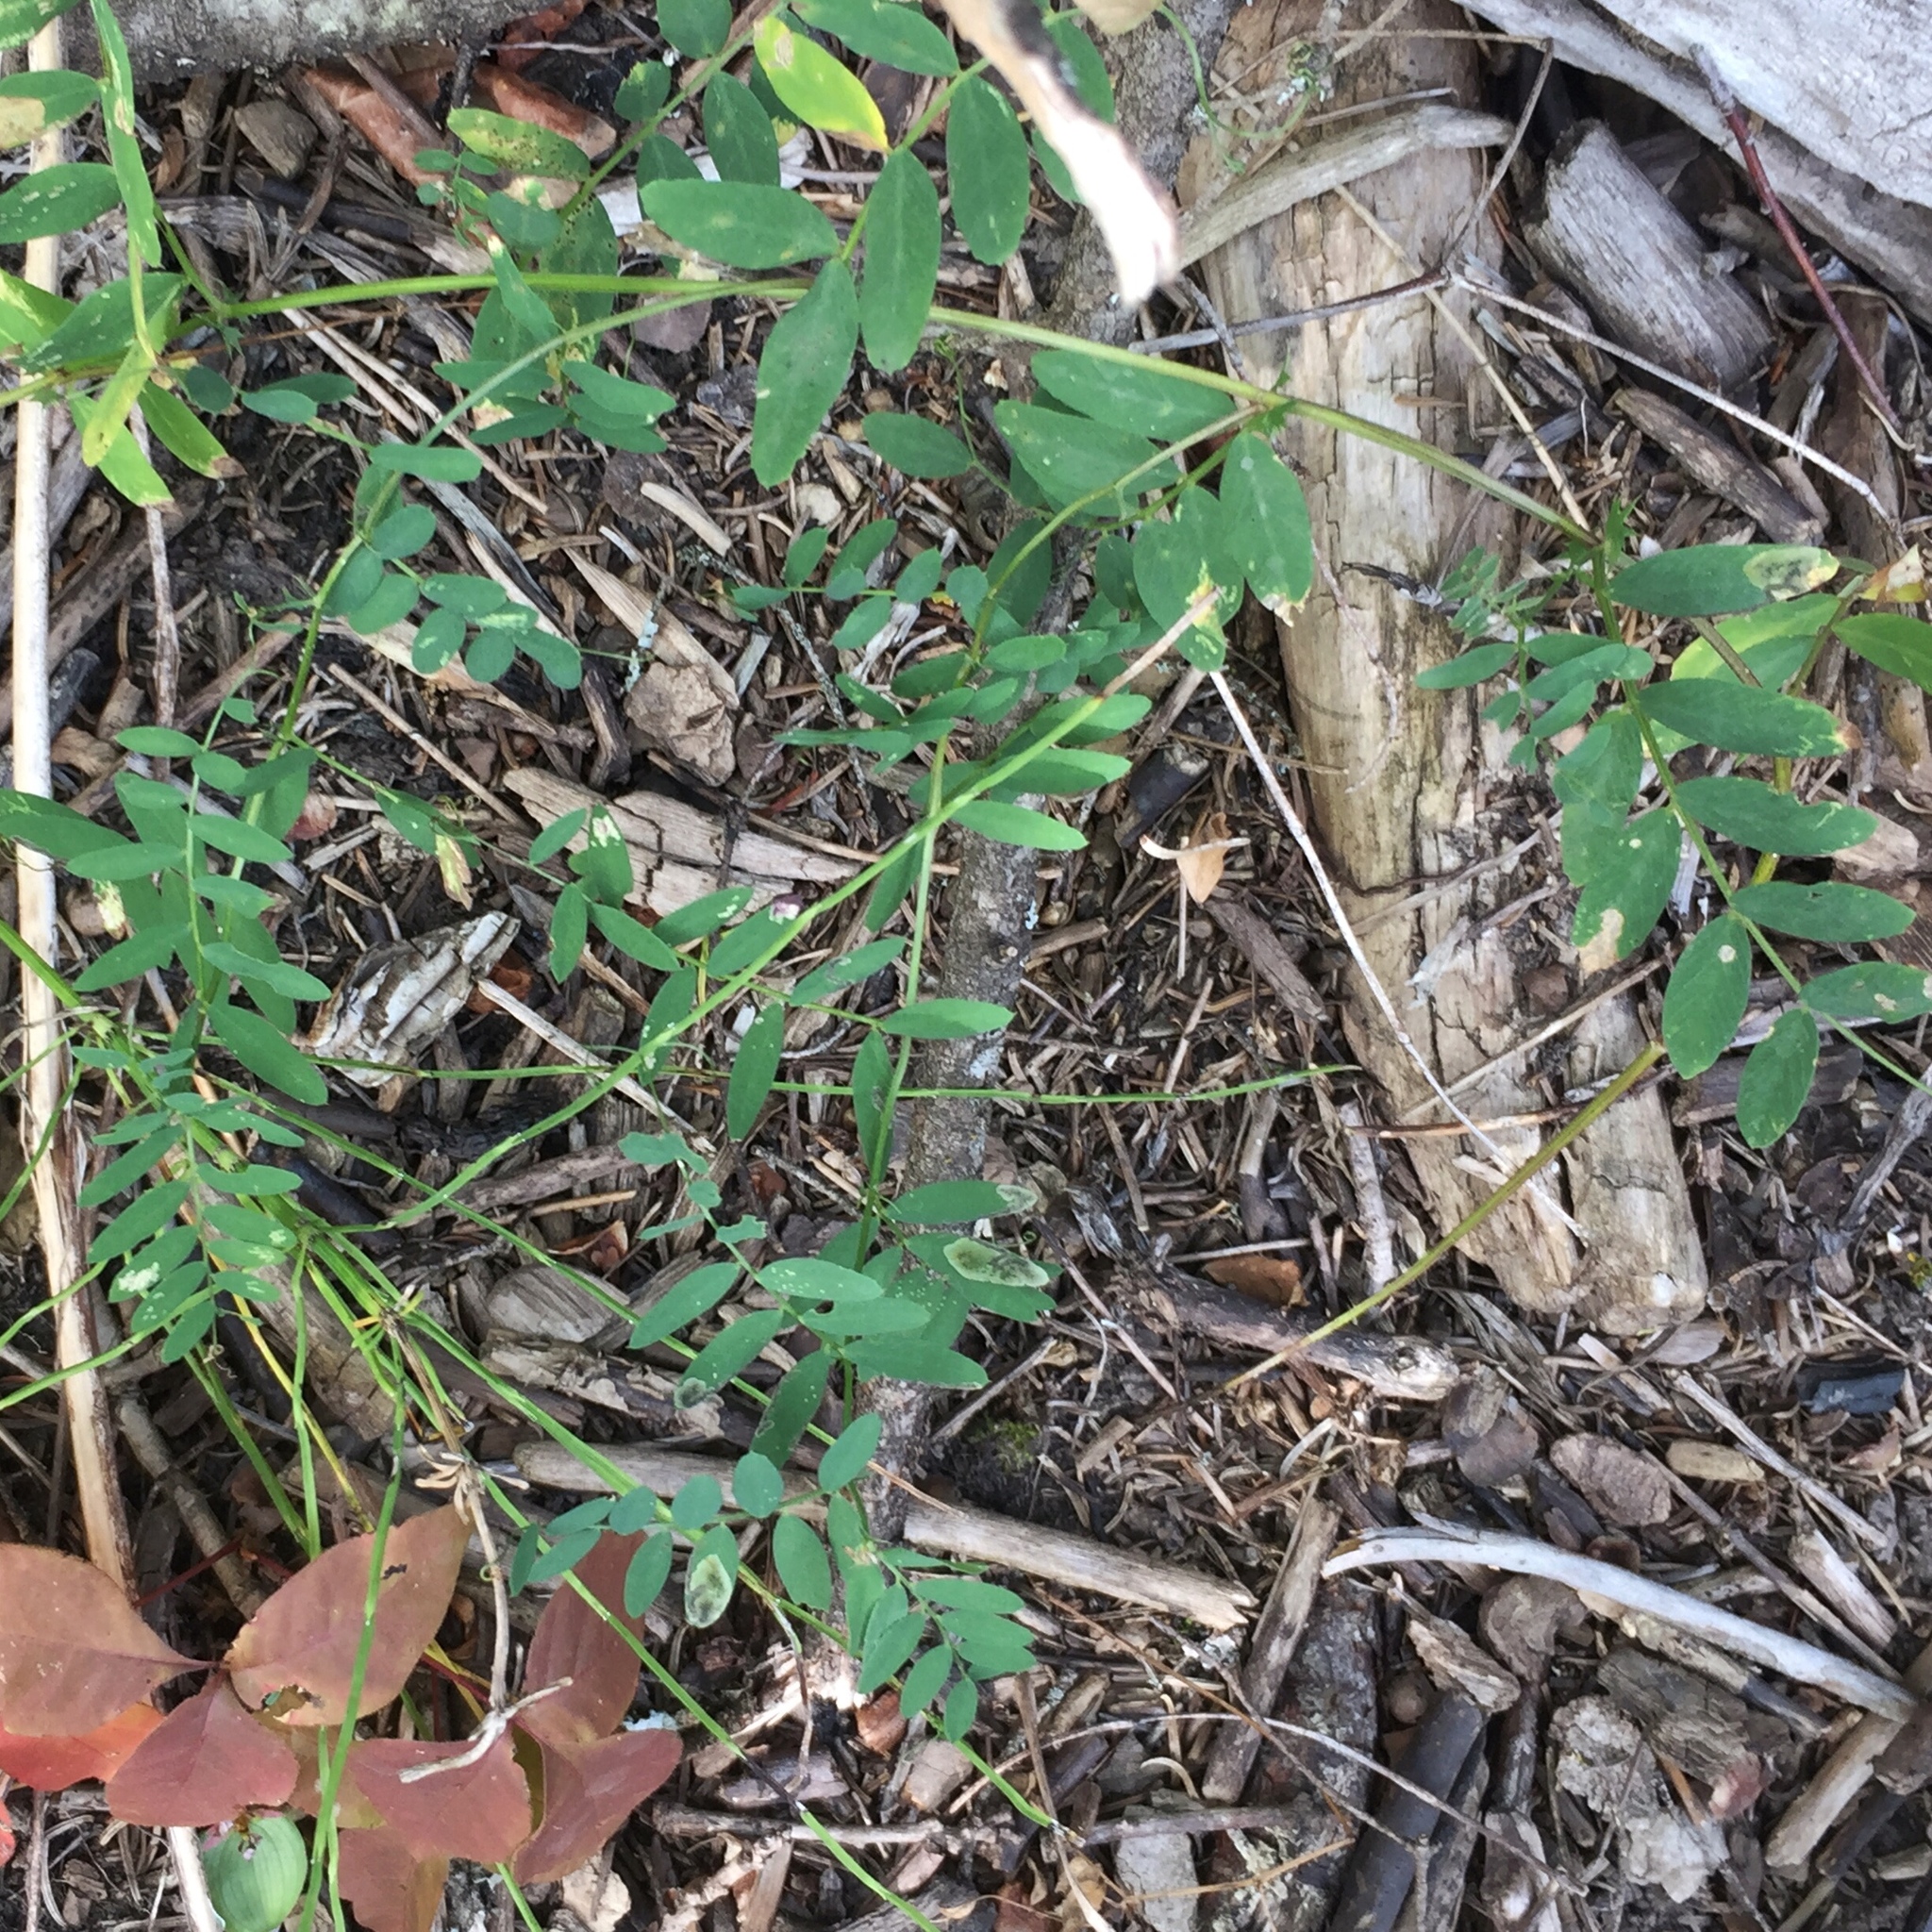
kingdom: Plantae
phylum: Tracheophyta
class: Magnoliopsida
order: Fabales
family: Fabaceae
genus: Vicia
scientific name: Vicia americana
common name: American vetch
